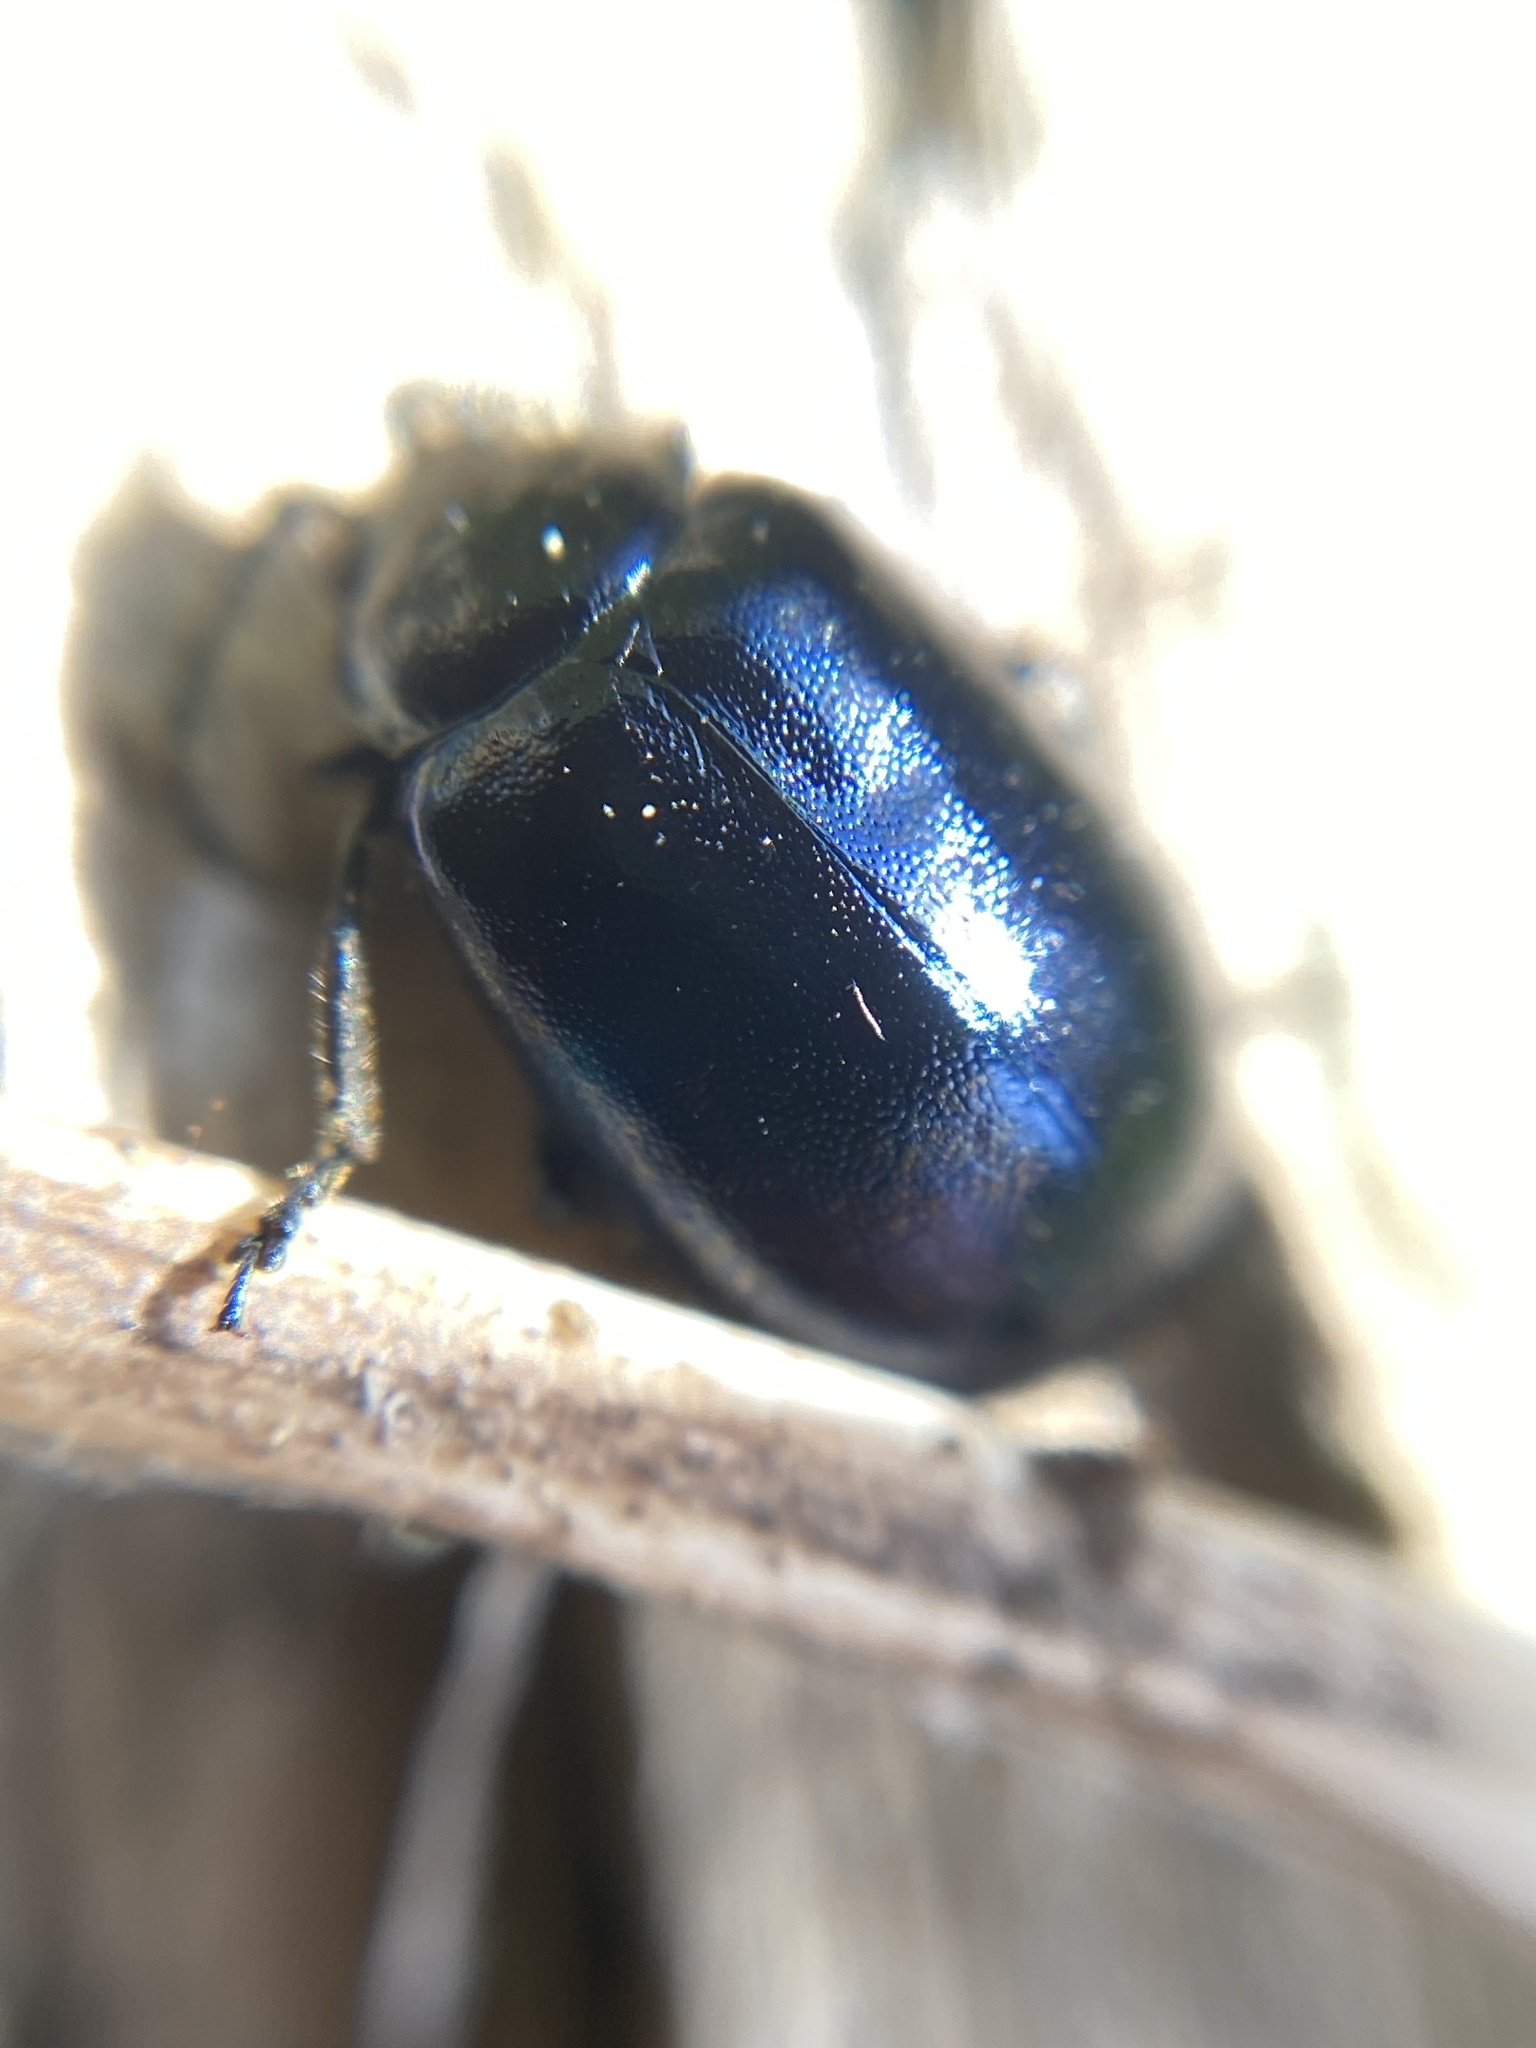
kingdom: Animalia
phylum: Arthropoda
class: Insecta
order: Coleoptera
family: Chrysomelidae
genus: Agelastica
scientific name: Agelastica alni
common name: Alder leaf beetle
